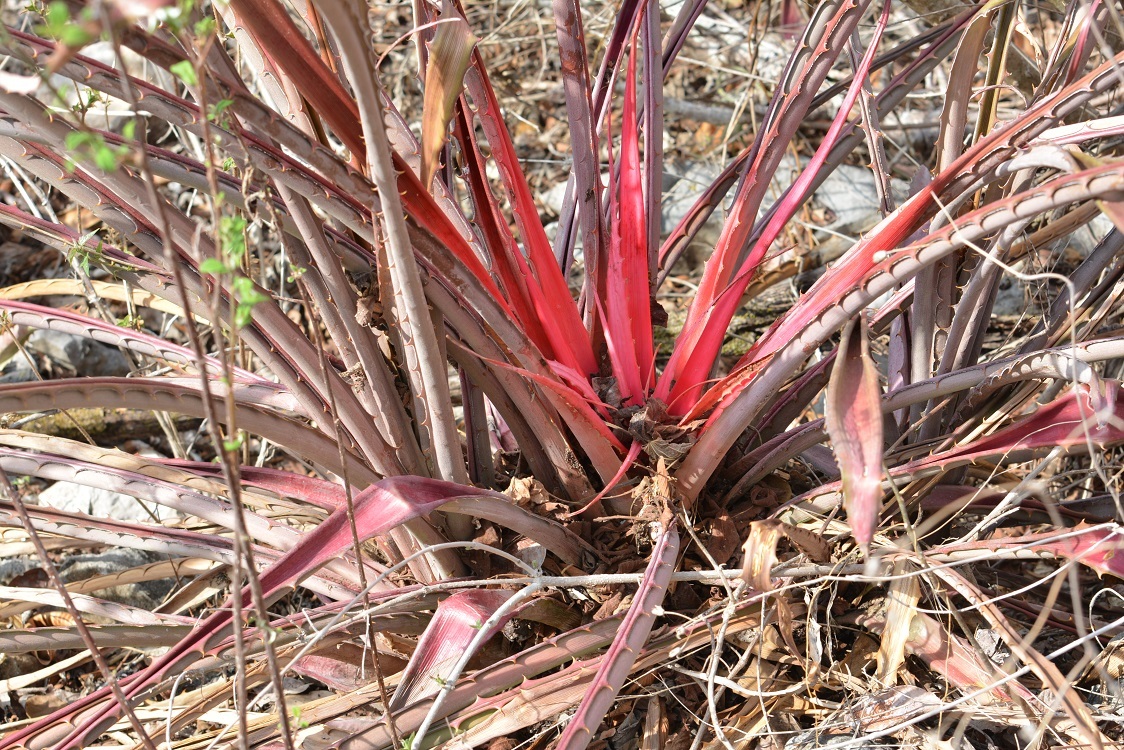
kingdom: Plantae
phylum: Tracheophyta
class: Liliopsida
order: Poales
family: Bromeliaceae
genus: Bromelia
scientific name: Bromelia karatas
